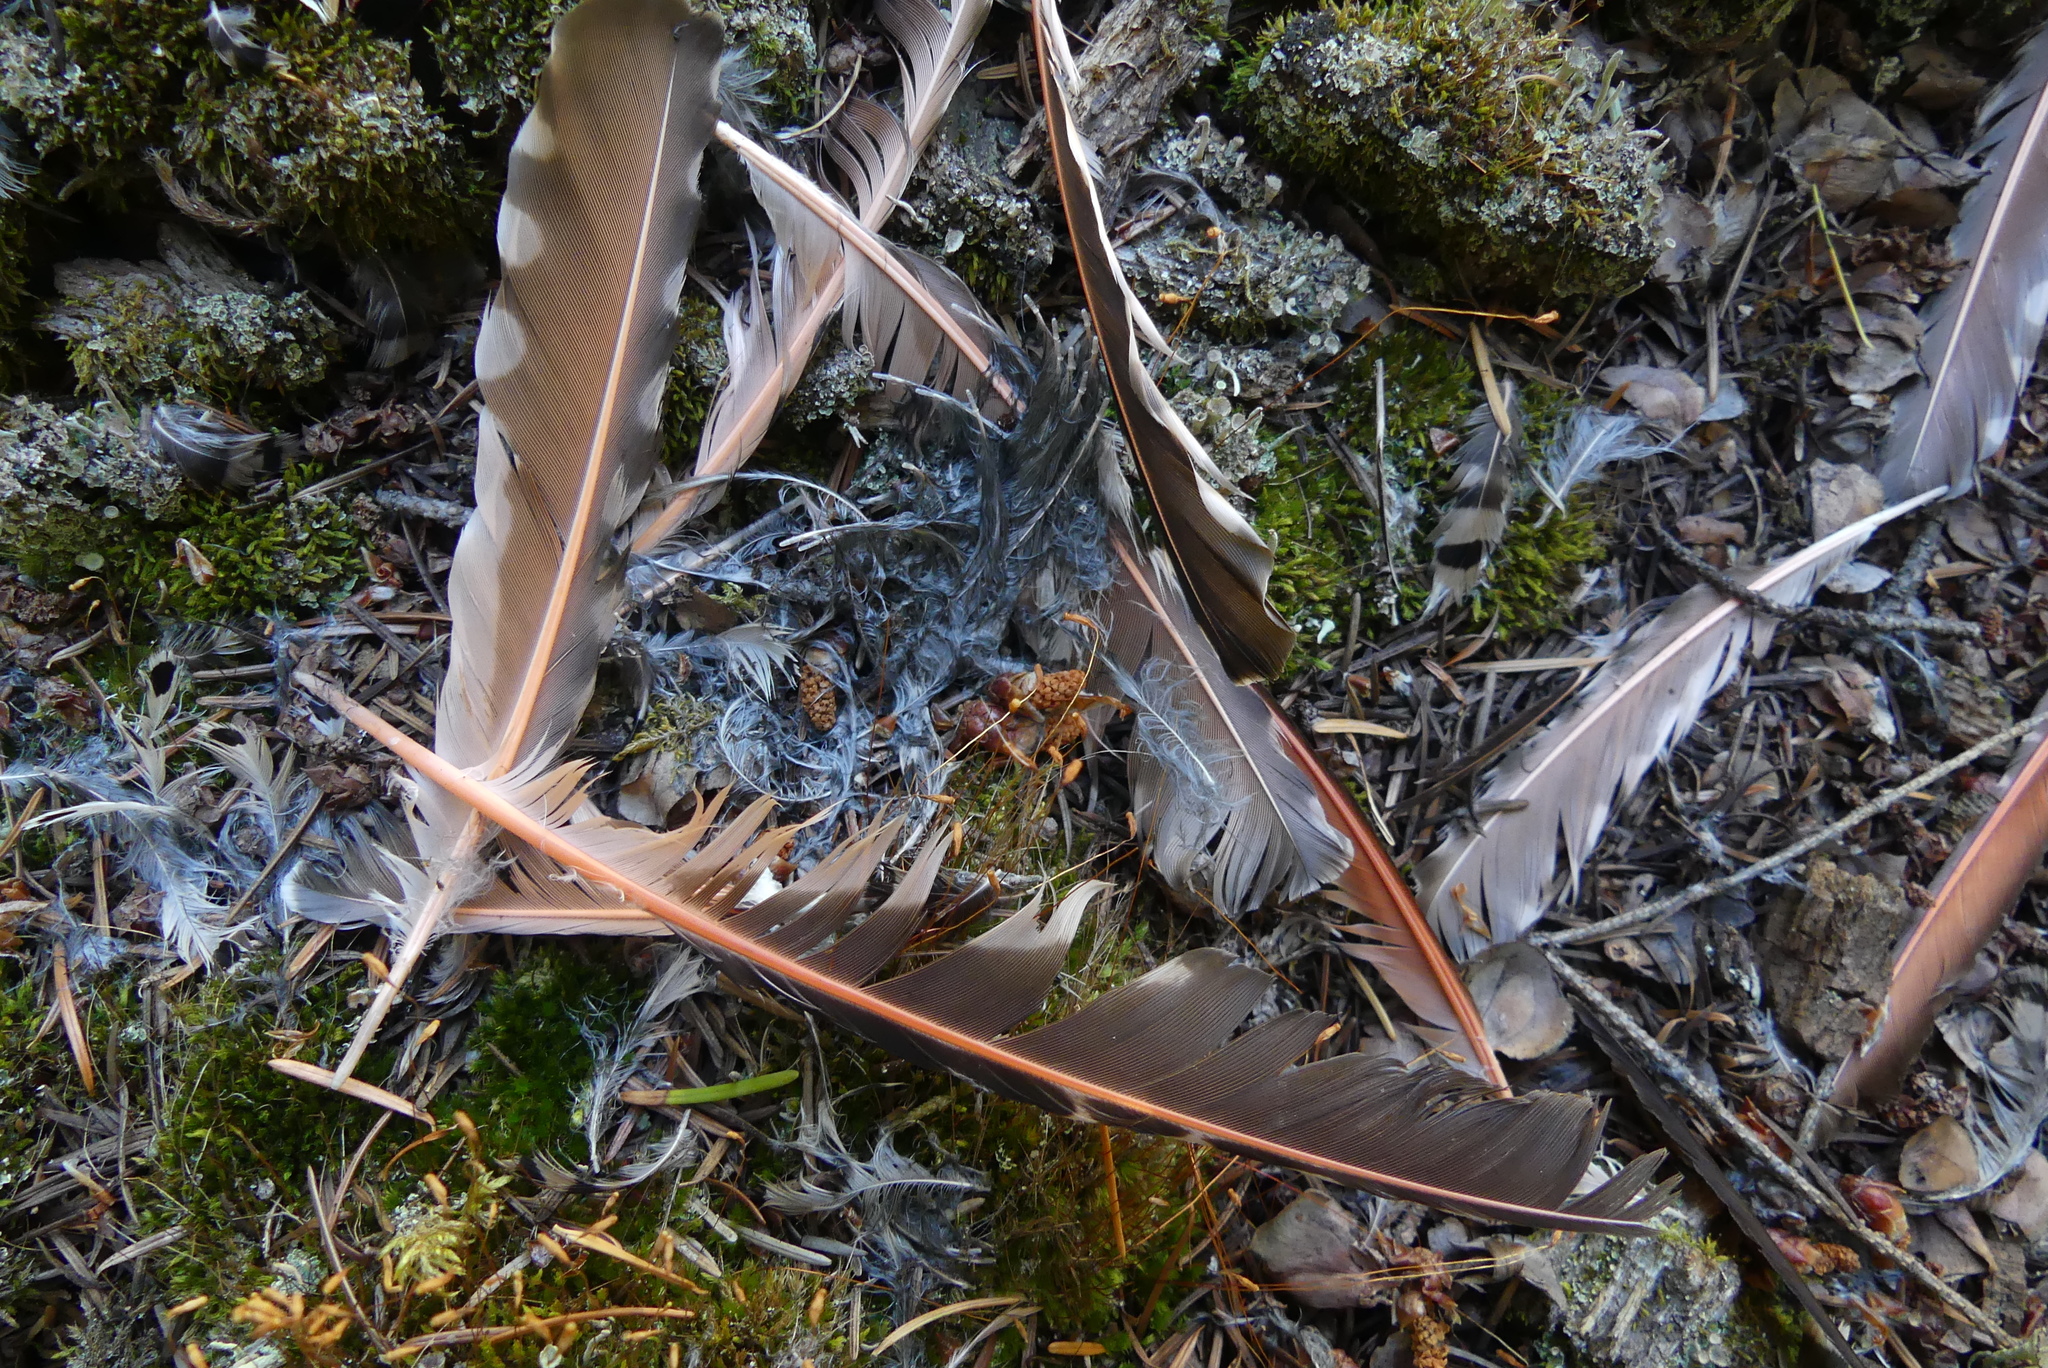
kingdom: Animalia
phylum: Chordata
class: Aves
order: Piciformes
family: Picidae
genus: Colaptes
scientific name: Colaptes auratus
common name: Northern flicker
